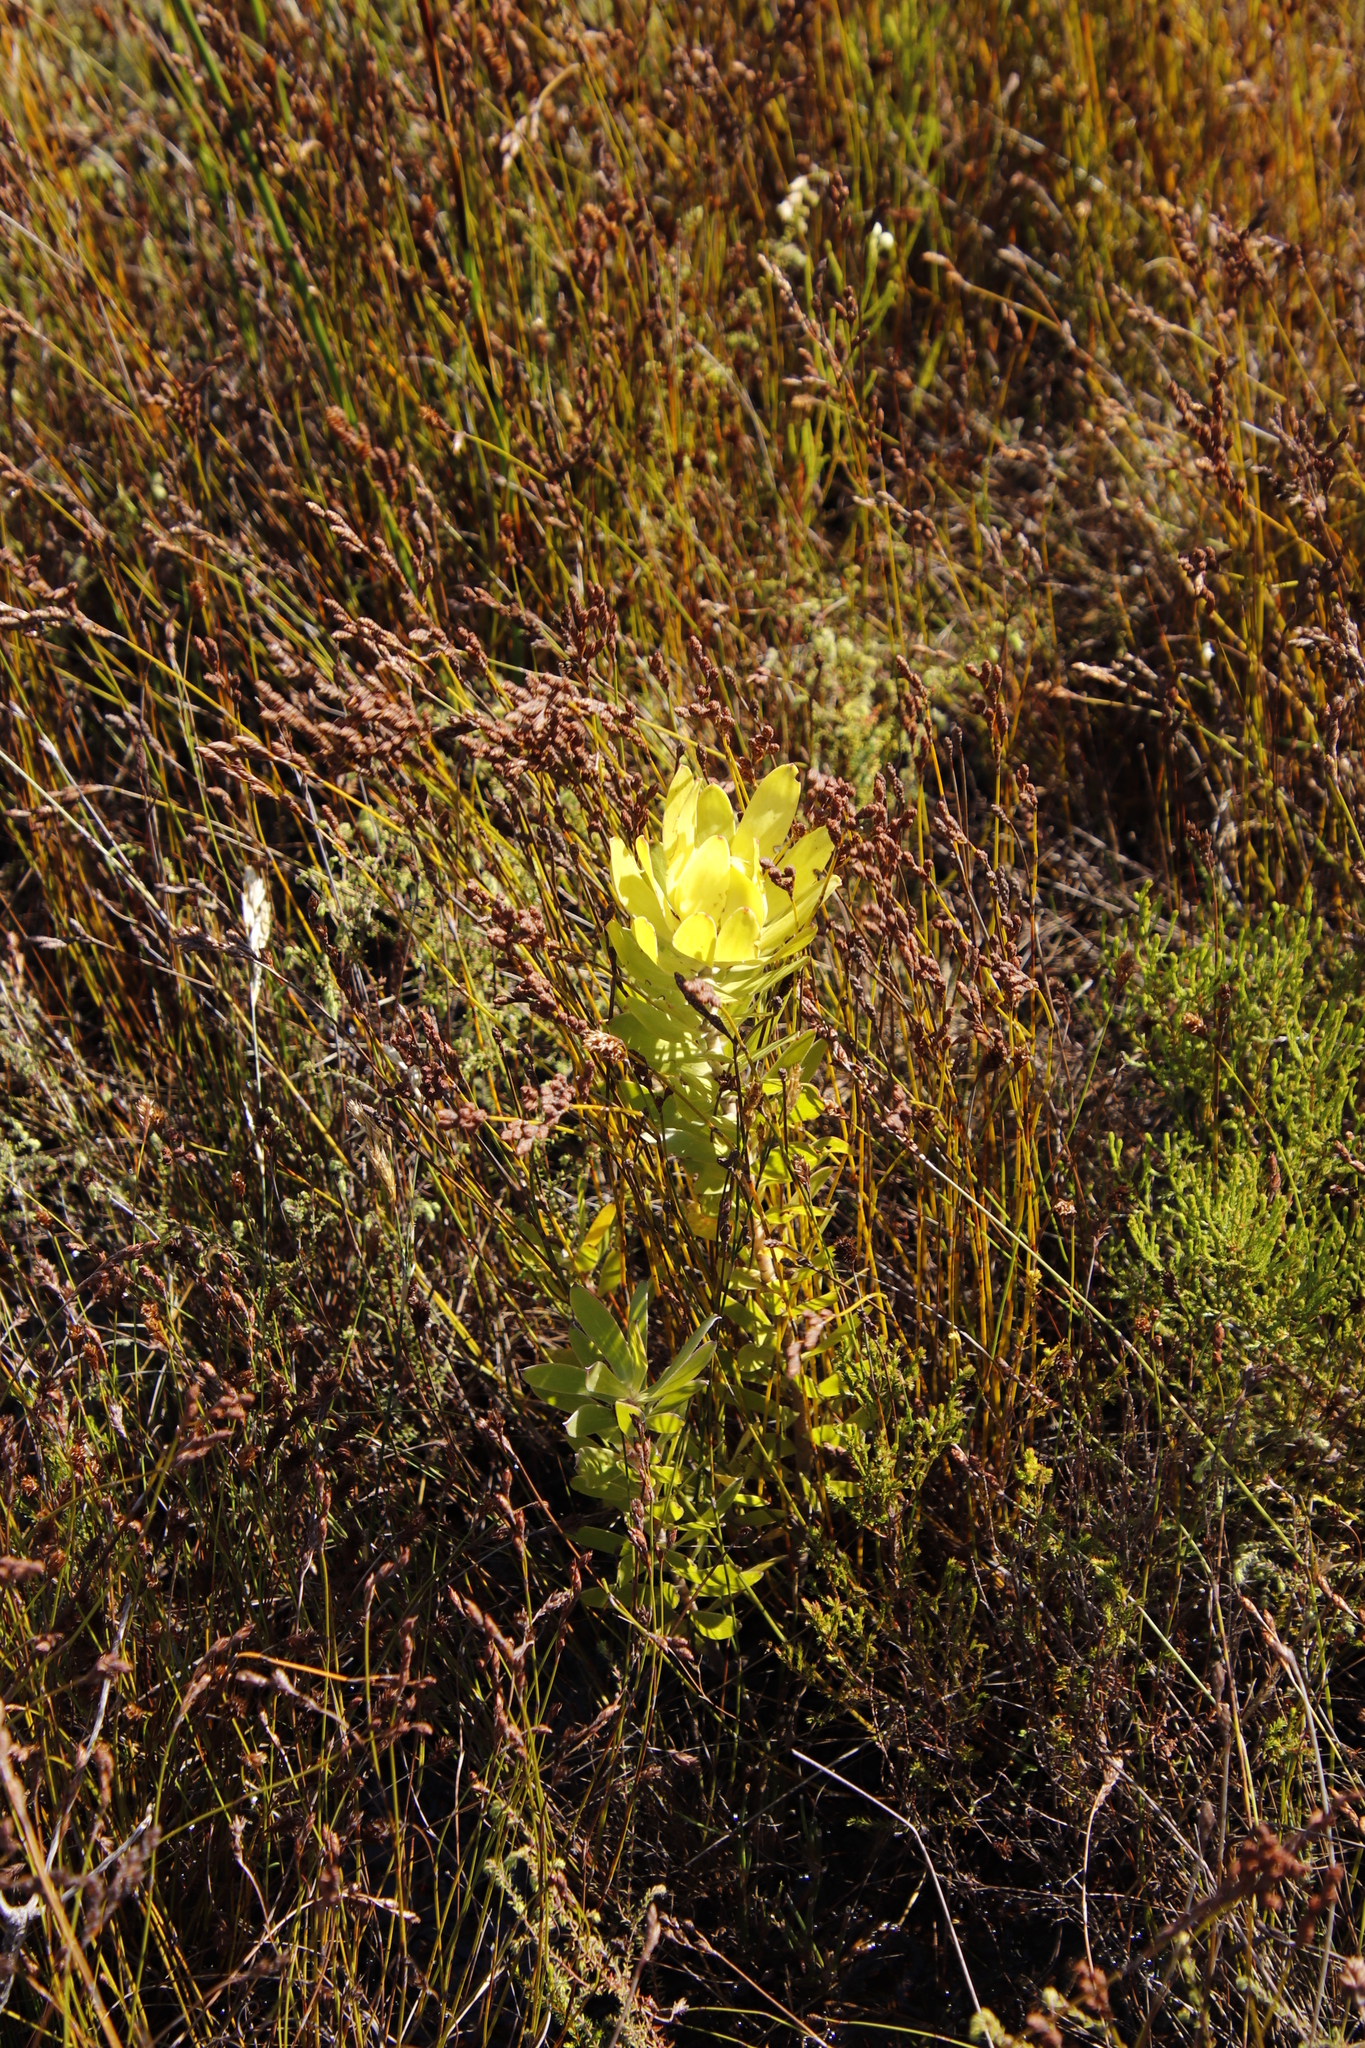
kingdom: Plantae
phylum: Tracheophyta
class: Magnoliopsida
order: Proteales
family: Proteaceae
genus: Leucadendron
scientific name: Leucadendron laureolum
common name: Golden sunshinebush
